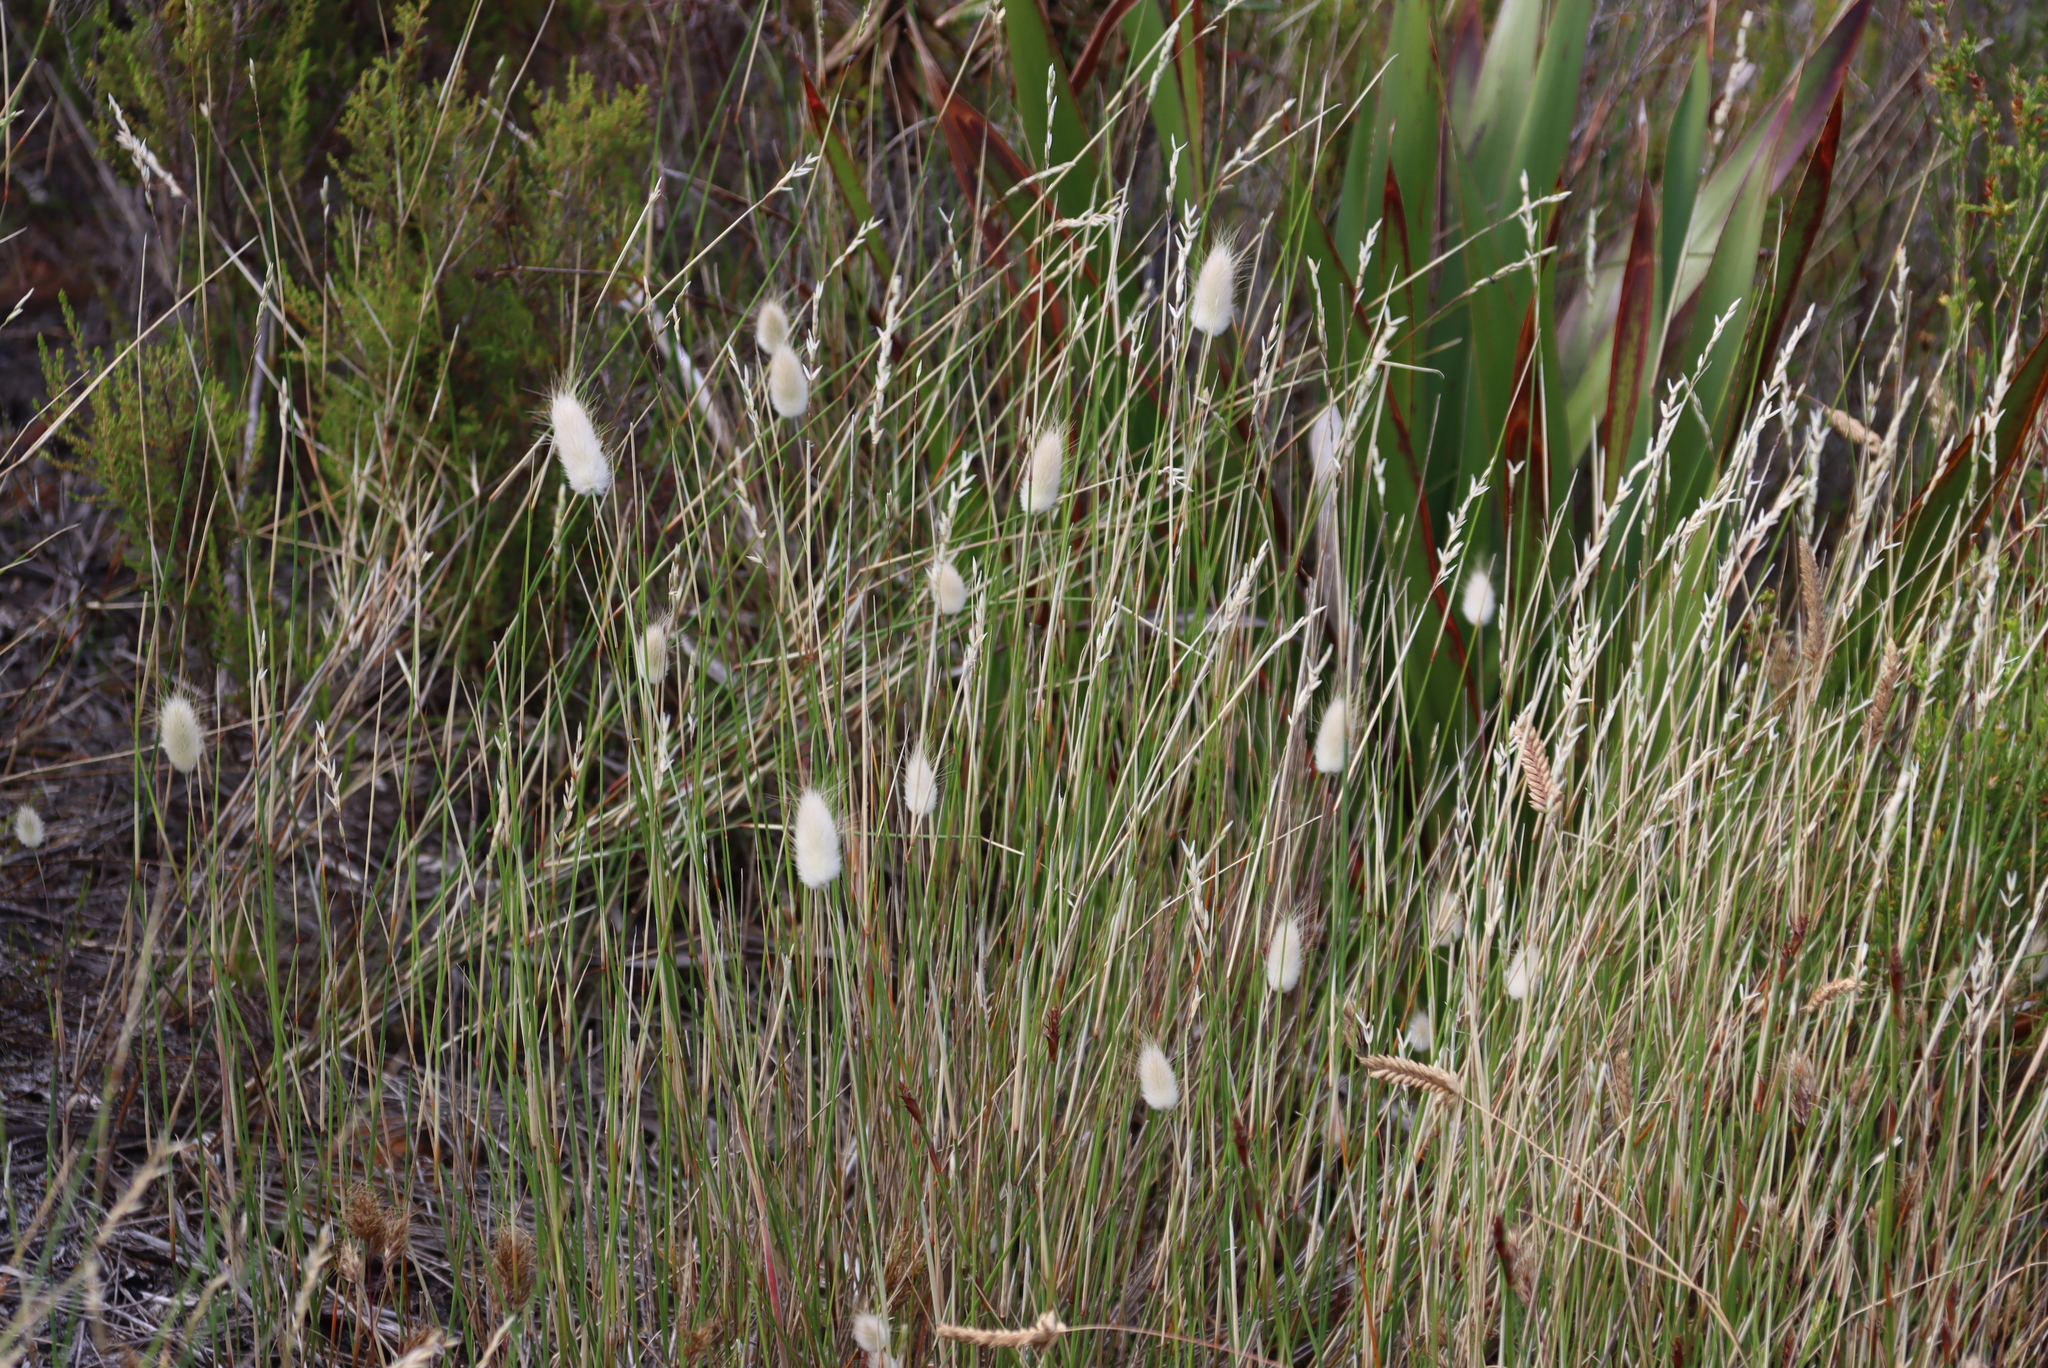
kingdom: Plantae
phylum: Tracheophyta
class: Liliopsida
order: Poales
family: Poaceae
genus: Lagurus
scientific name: Lagurus ovatus
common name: Hare's-tail
